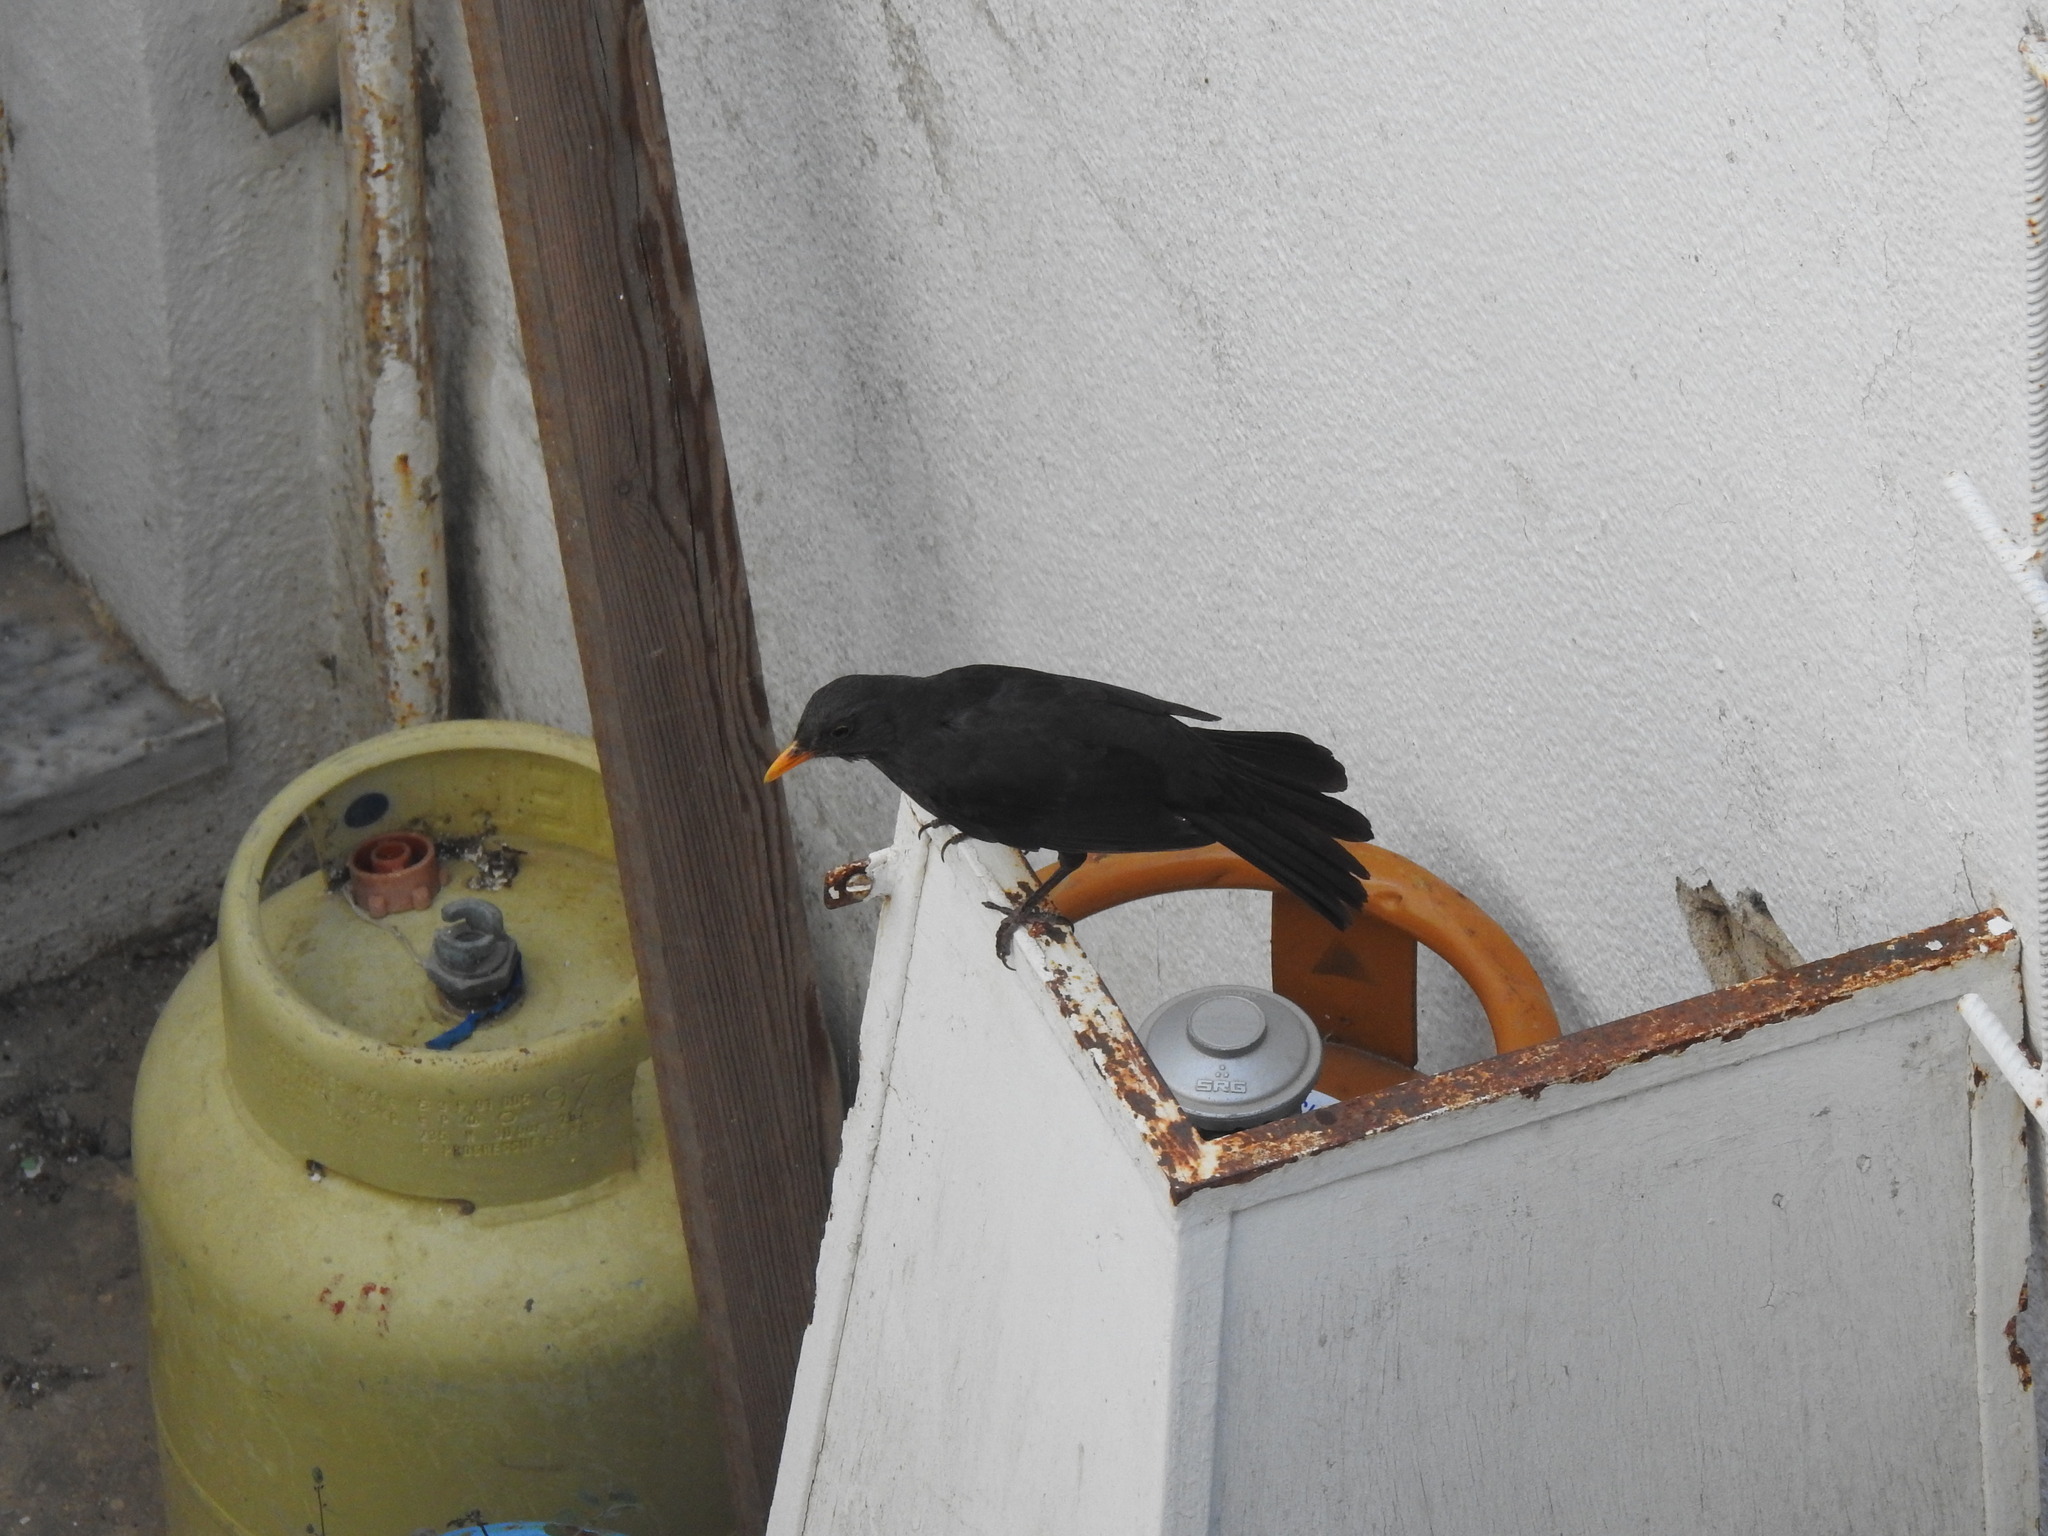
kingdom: Animalia
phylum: Chordata
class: Aves
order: Passeriformes
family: Turdidae
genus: Turdus
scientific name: Turdus merula
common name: Common blackbird
